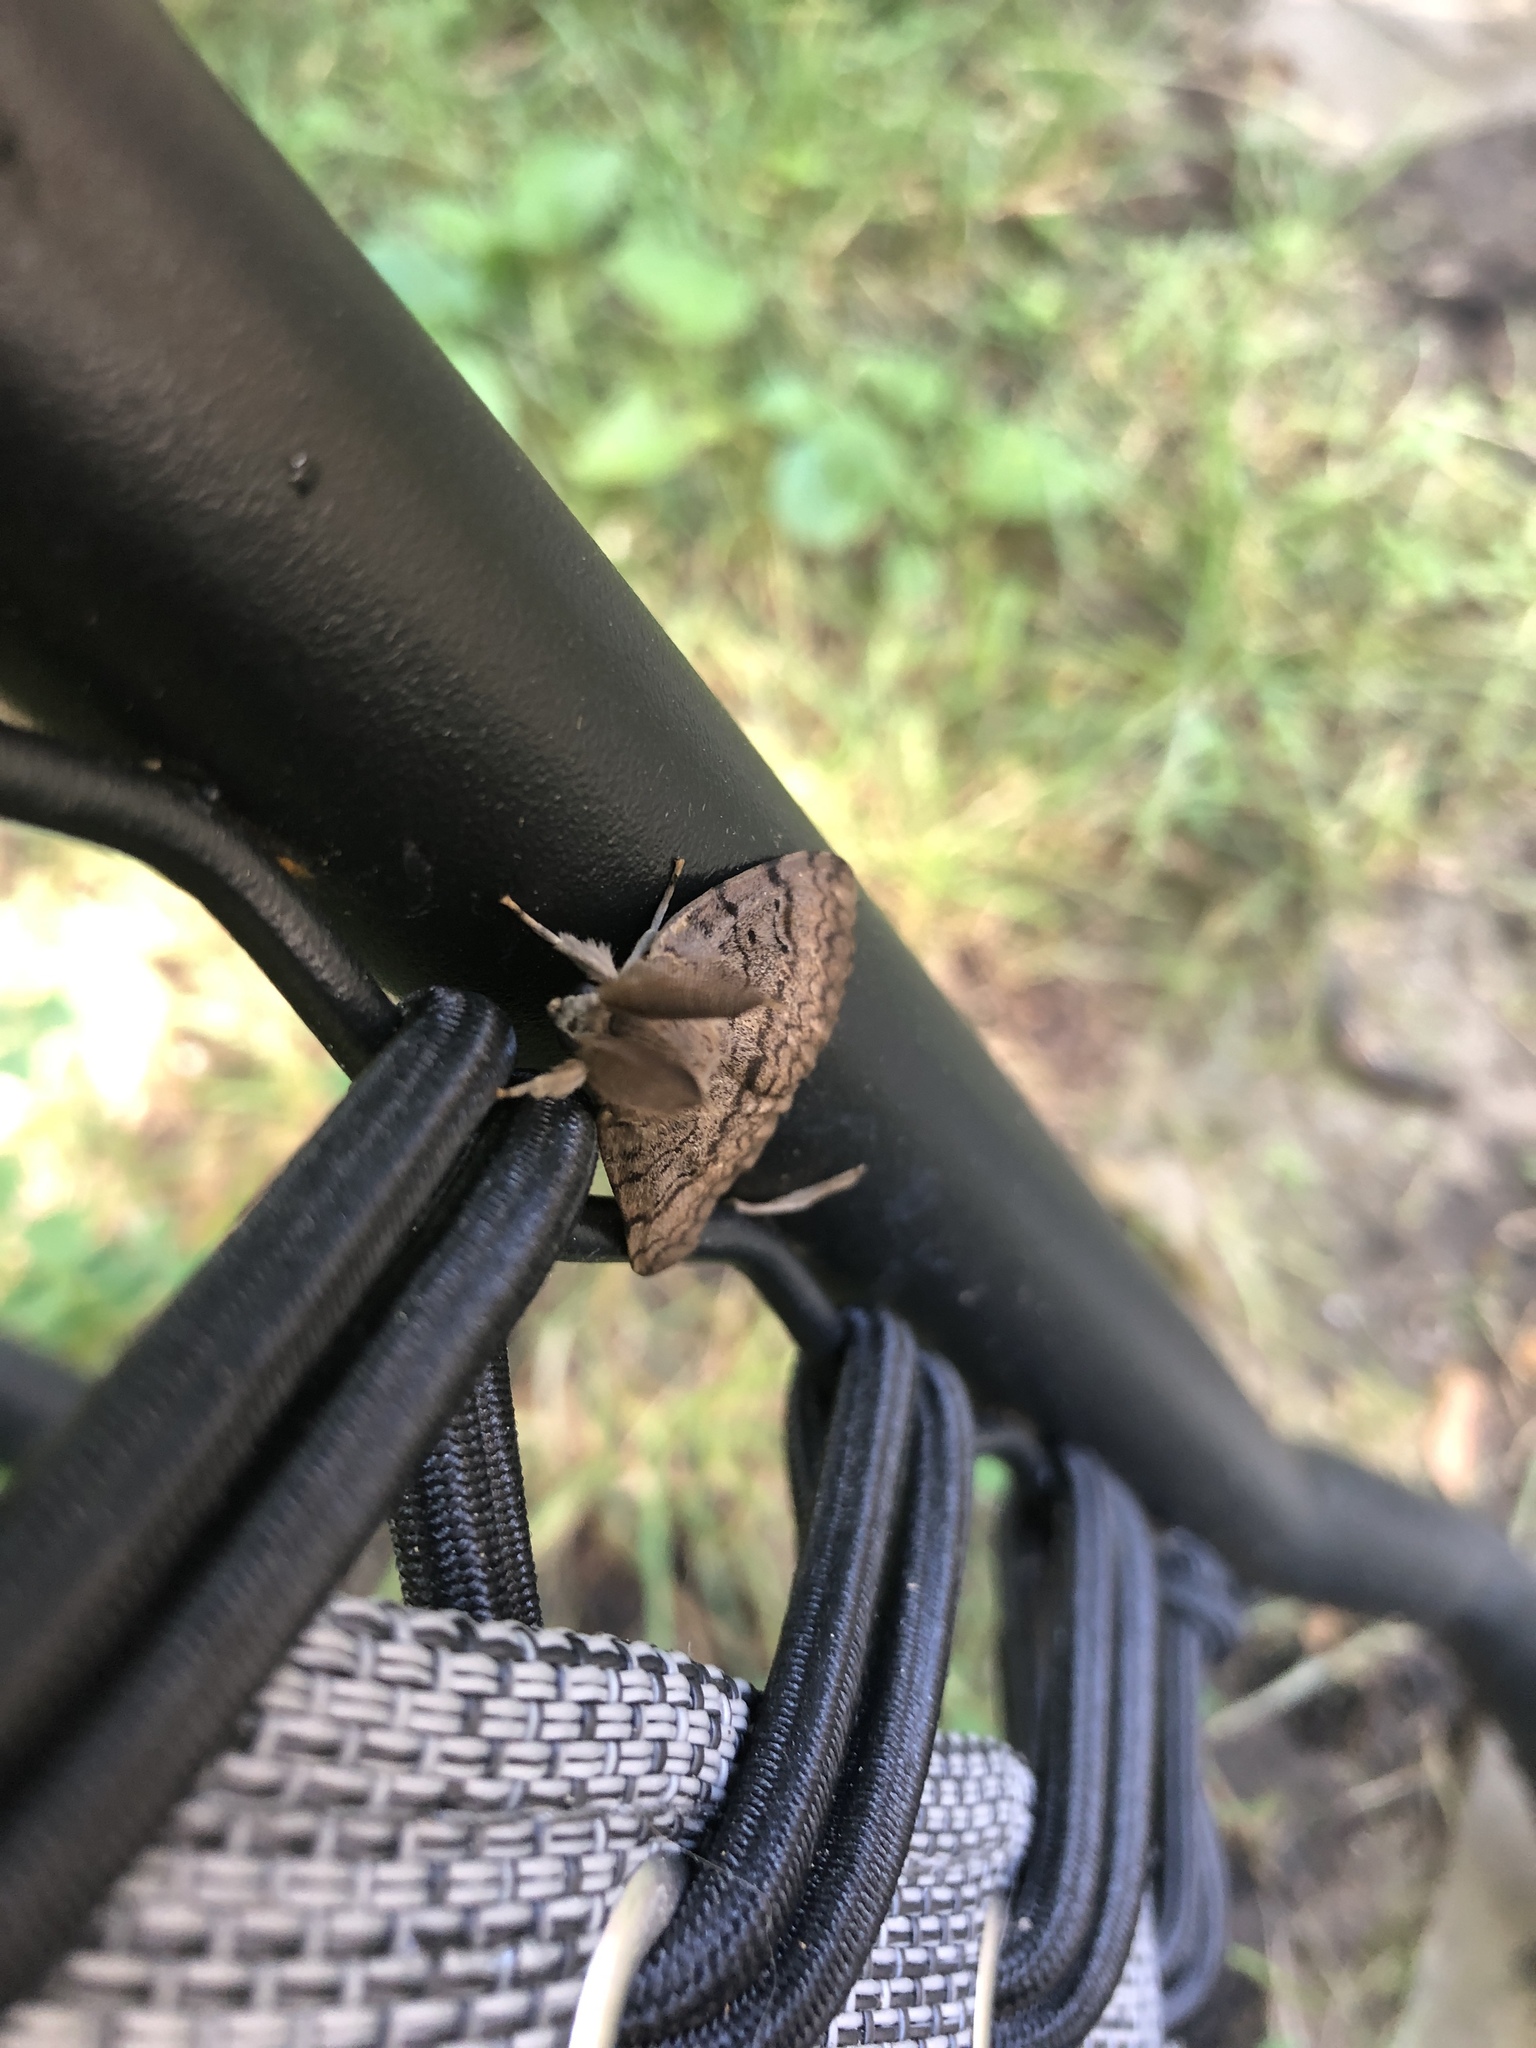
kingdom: Animalia
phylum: Arthropoda
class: Insecta
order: Lepidoptera
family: Erebidae
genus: Lymantria
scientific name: Lymantria dispar
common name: Gypsy moth
